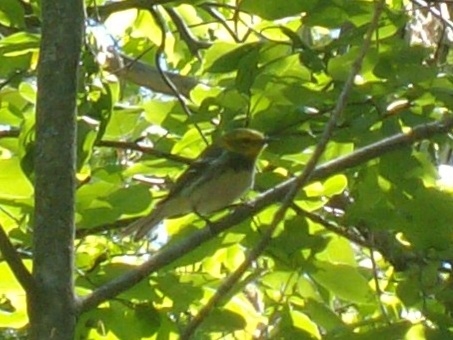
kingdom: Animalia
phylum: Chordata
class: Aves
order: Passeriformes
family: Parulidae
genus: Setophaga
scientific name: Setophaga virens
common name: Black-throated green warbler
